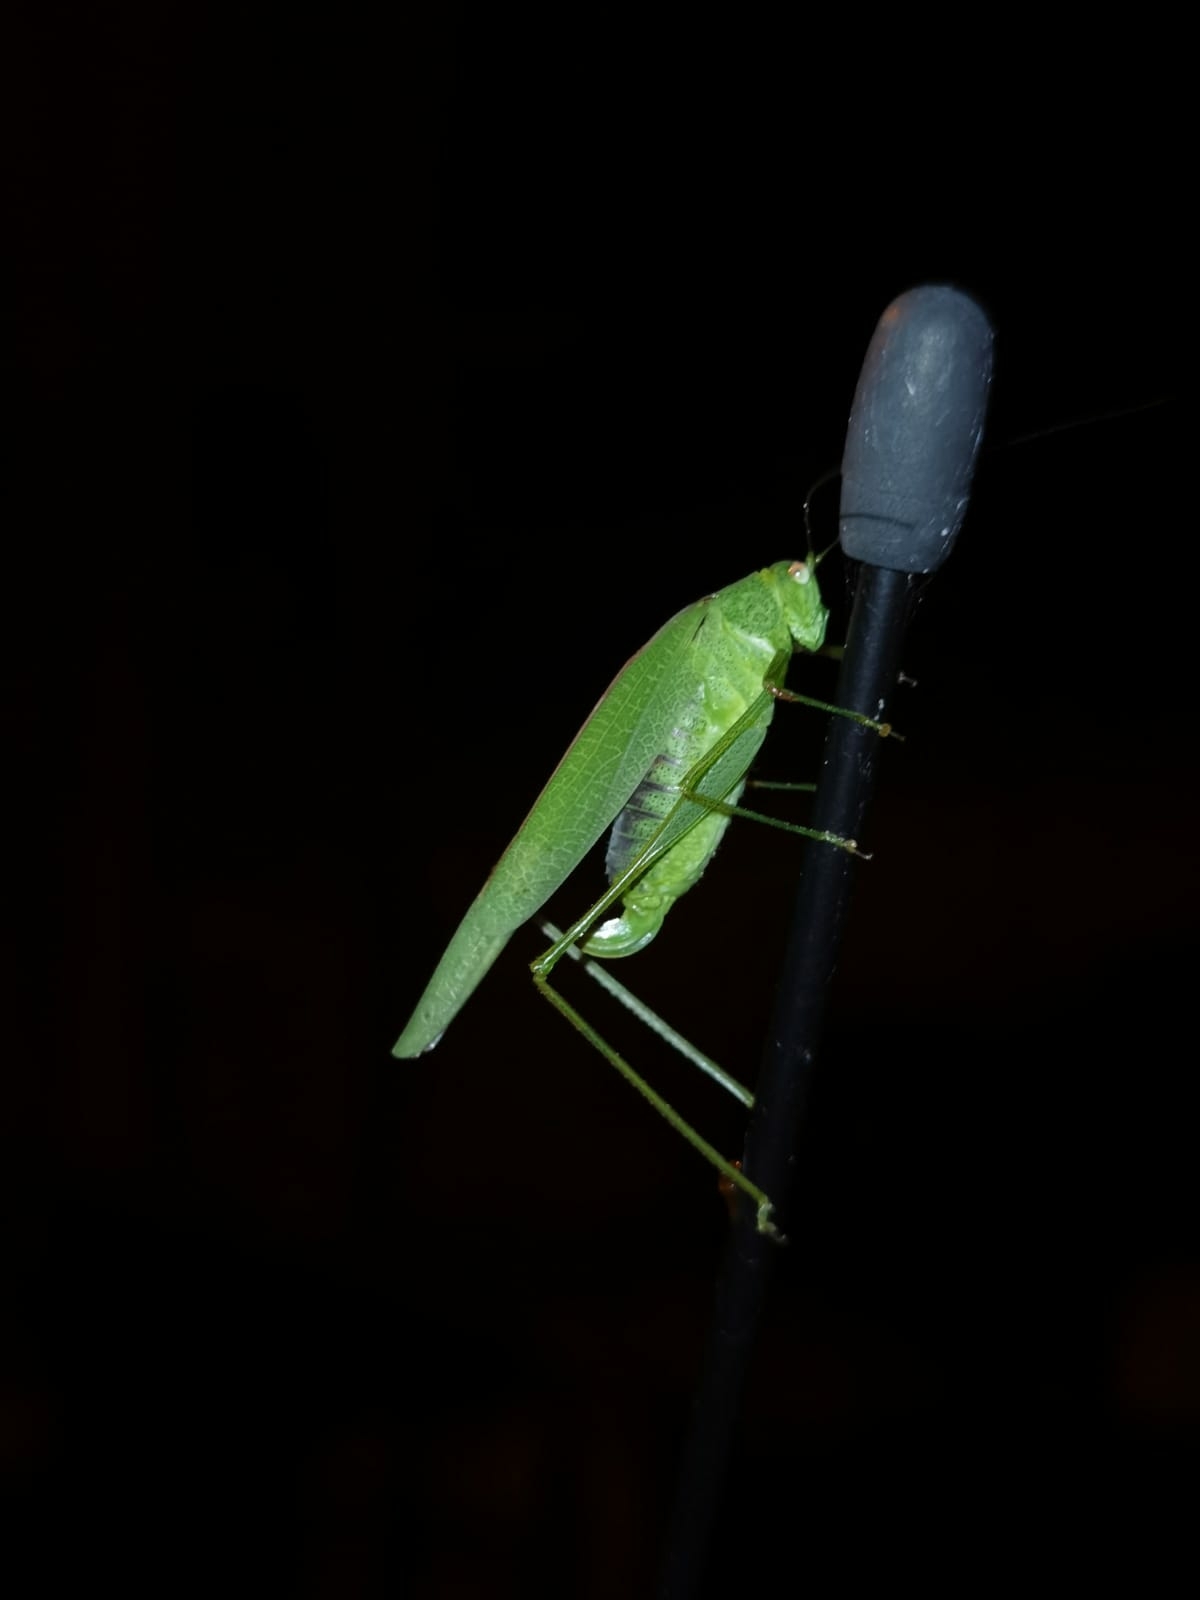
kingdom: Animalia
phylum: Arthropoda
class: Insecta
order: Orthoptera
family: Tettigoniidae
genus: Phaneroptera
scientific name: Phaneroptera nana
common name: Southern sickle bush-cricket
